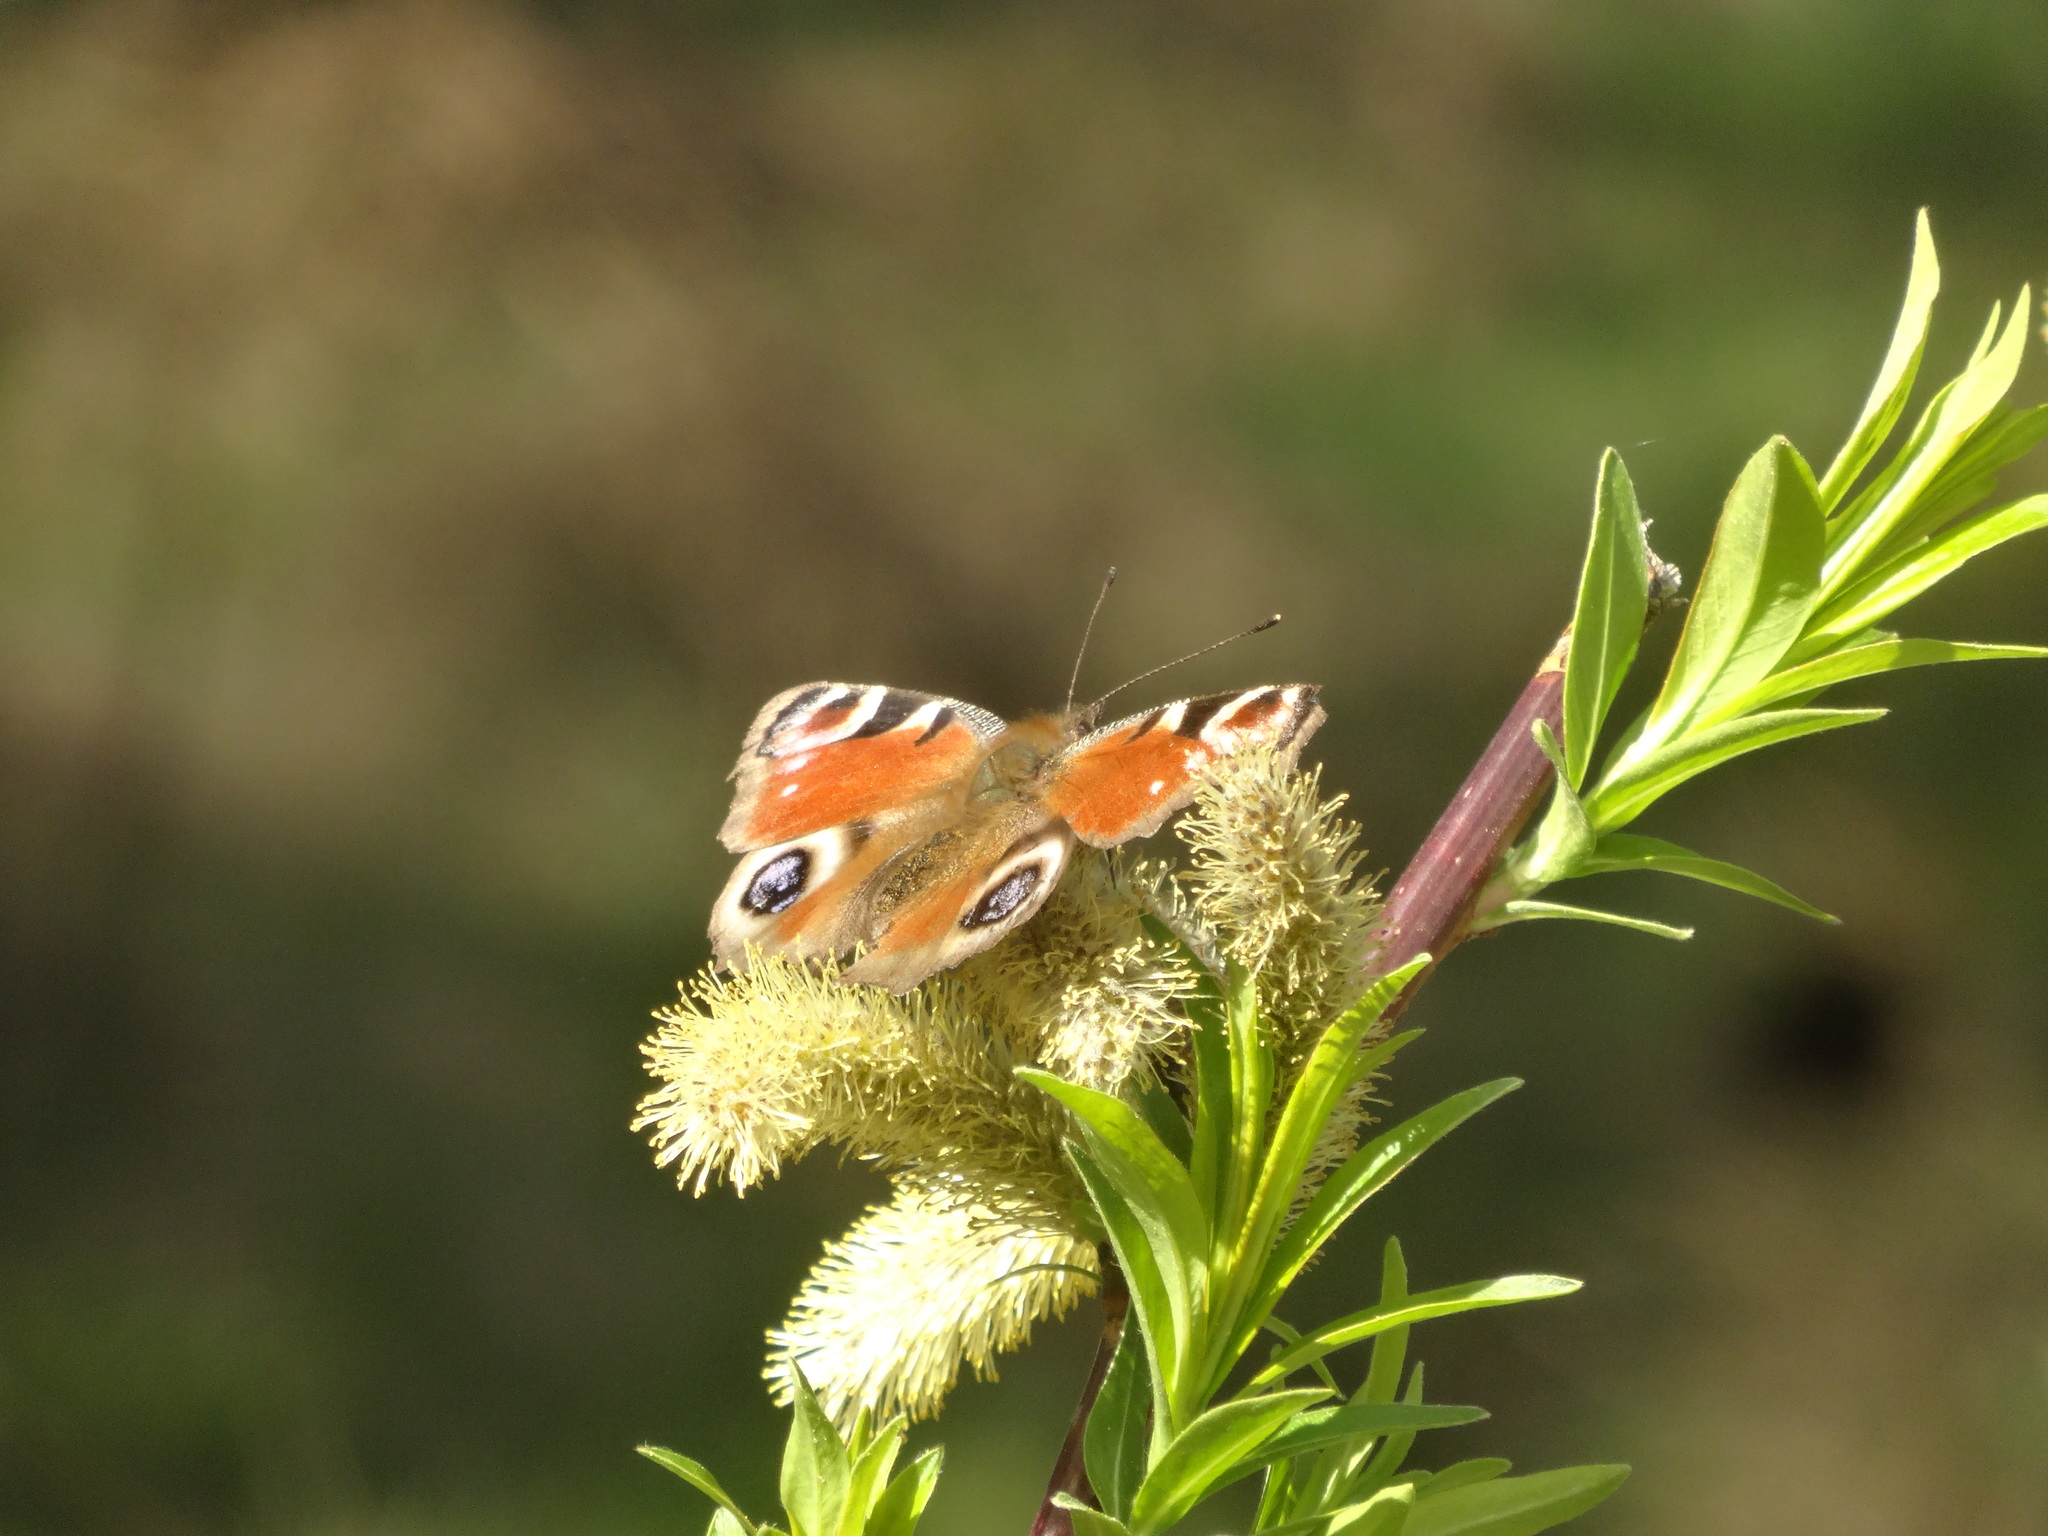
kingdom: Animalia
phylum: Arthropoda
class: Insecta
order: Lepidoptera
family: Nymphalidae
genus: Aglais
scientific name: Aglais io
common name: Peacock
